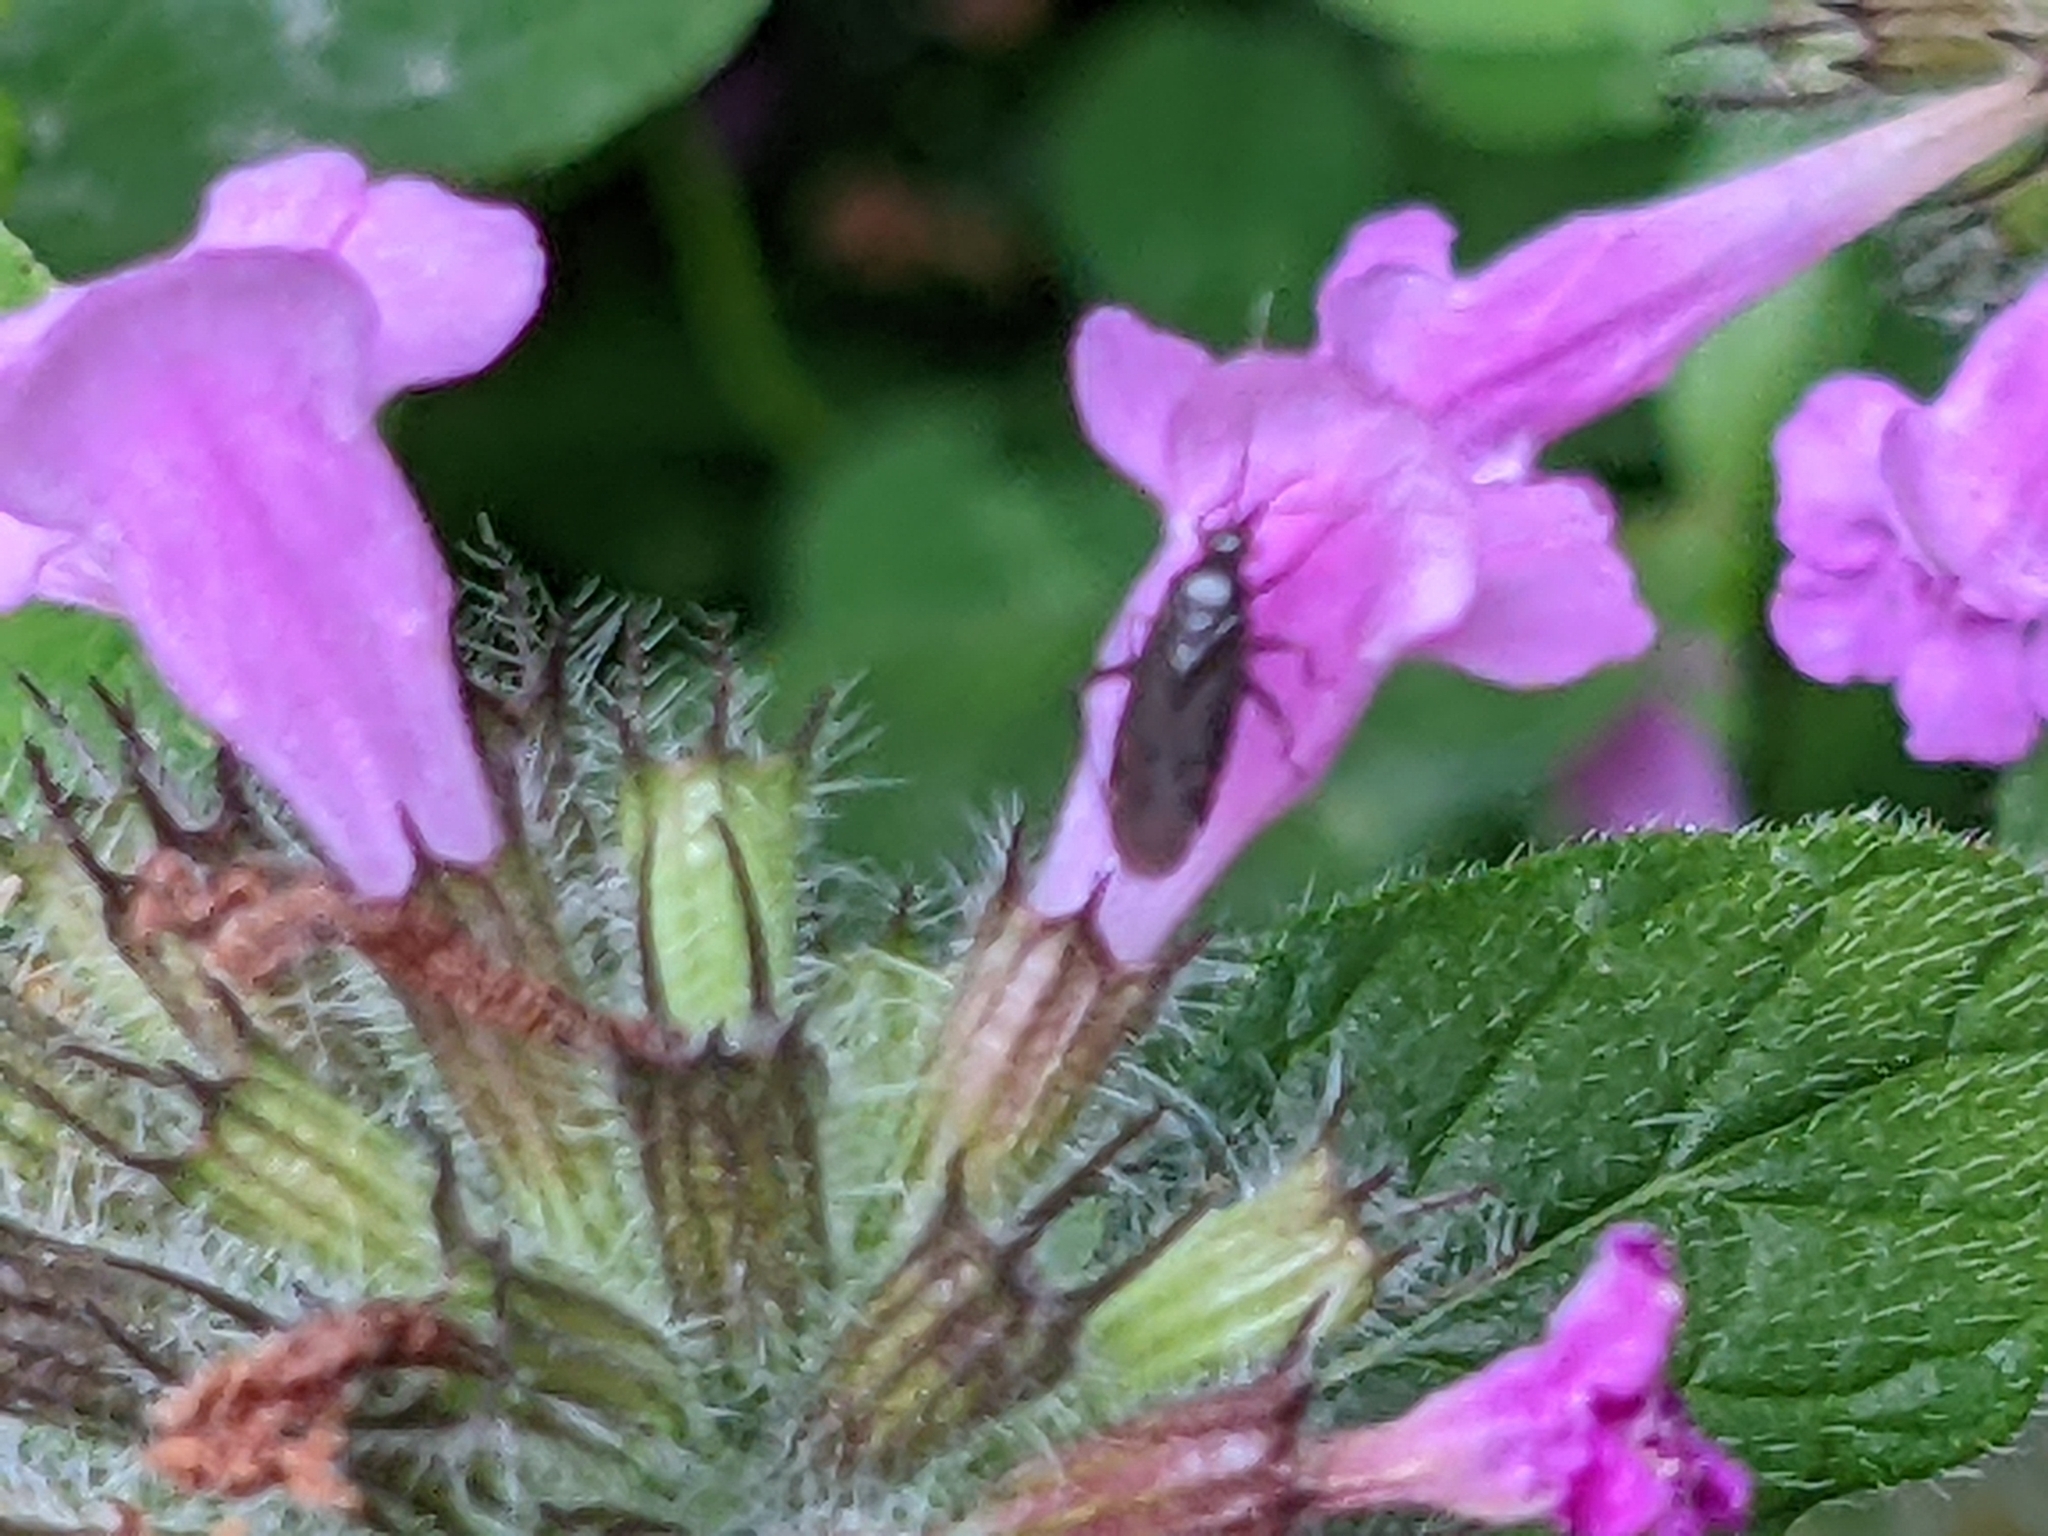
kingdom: Plantae
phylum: Tracheophyta
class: Magnoliopsida
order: Lamiales
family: Lamiaceae
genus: Clinopodium
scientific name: Clinopodium vulgare
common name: Wild basil
